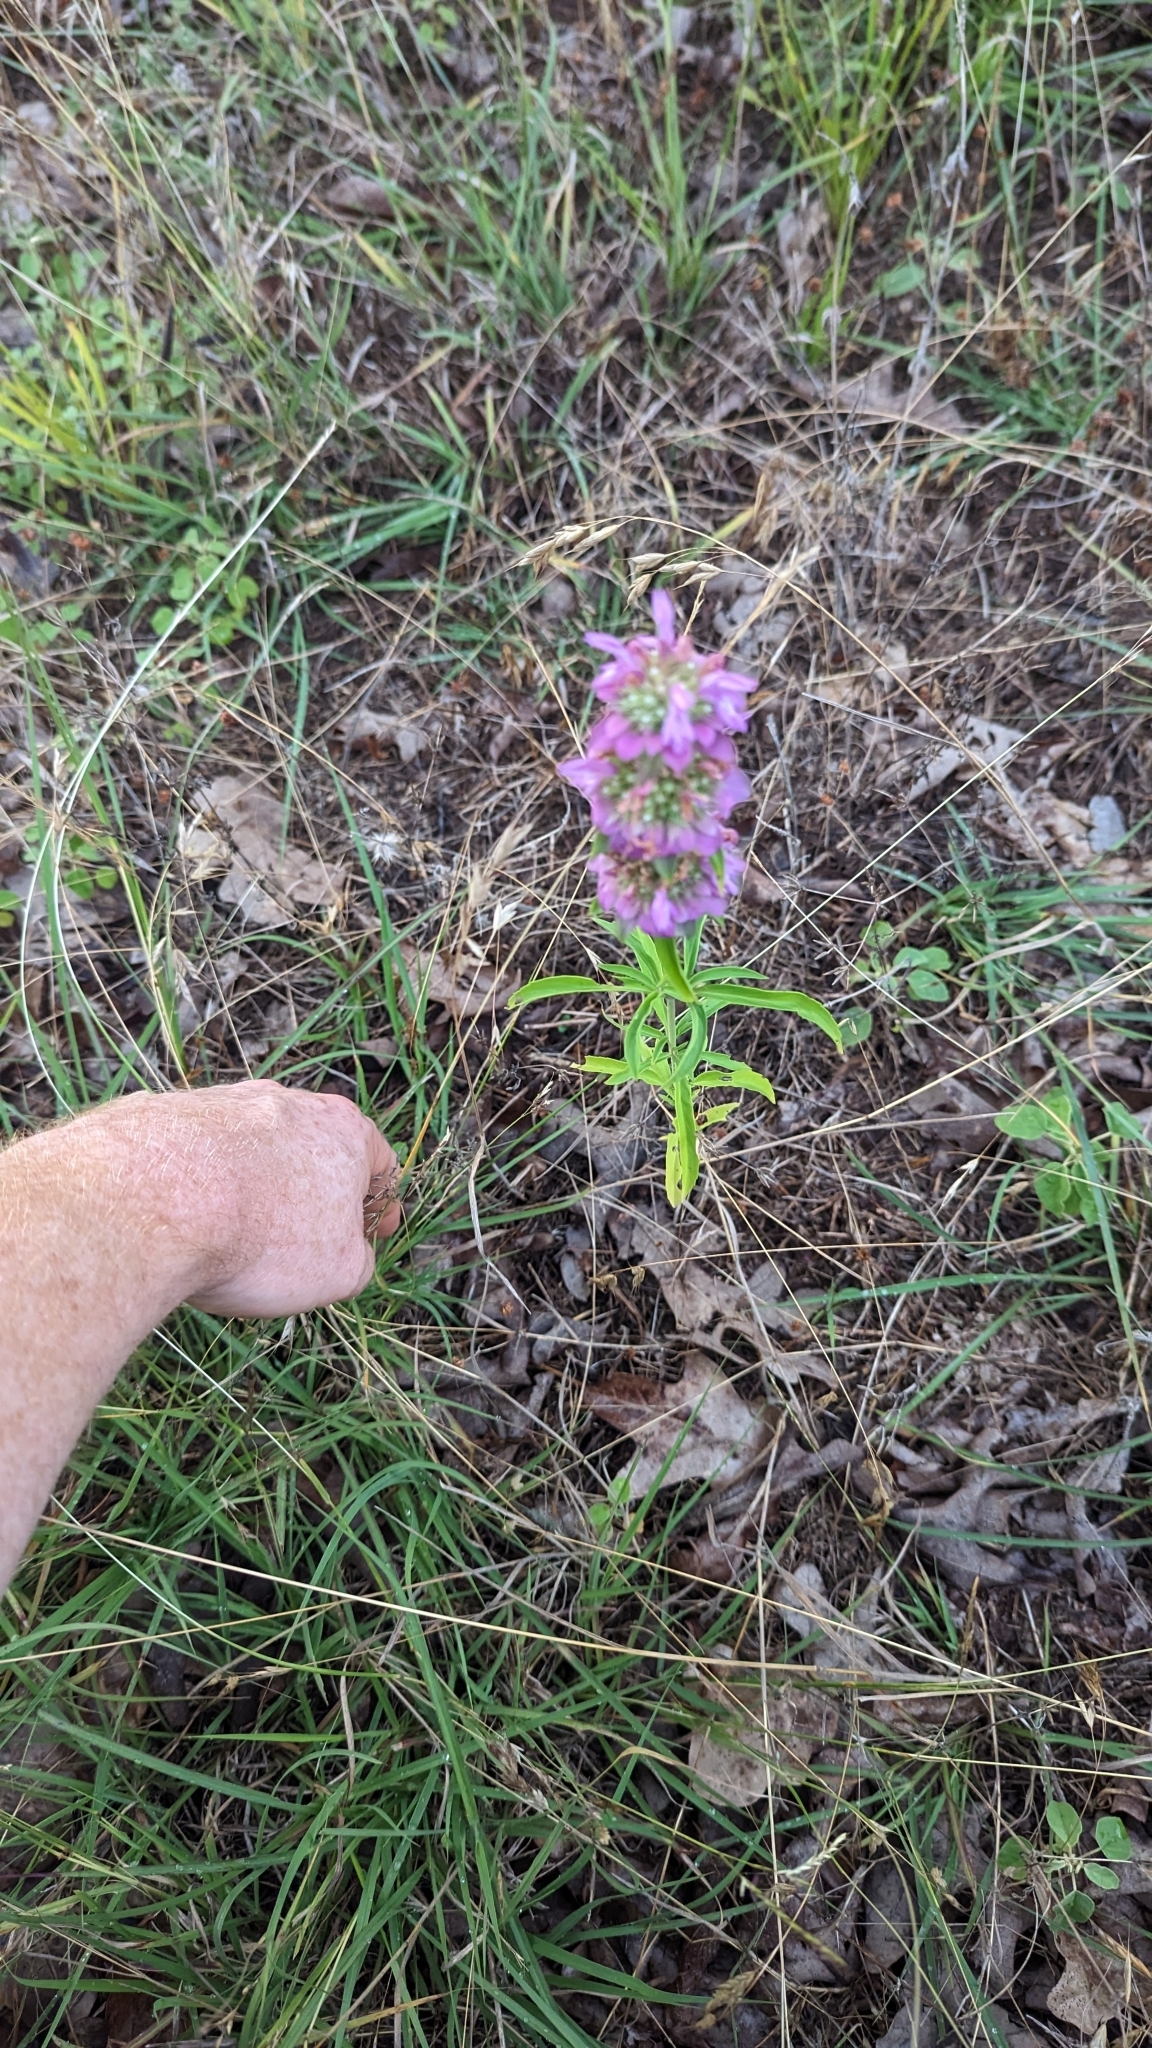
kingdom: Plantae
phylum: Tracheophyta
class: Magnoliopsida
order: Lamiales
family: Lamiaceae
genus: Monarda
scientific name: Monarda citriodora
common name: Lemon beebalm
